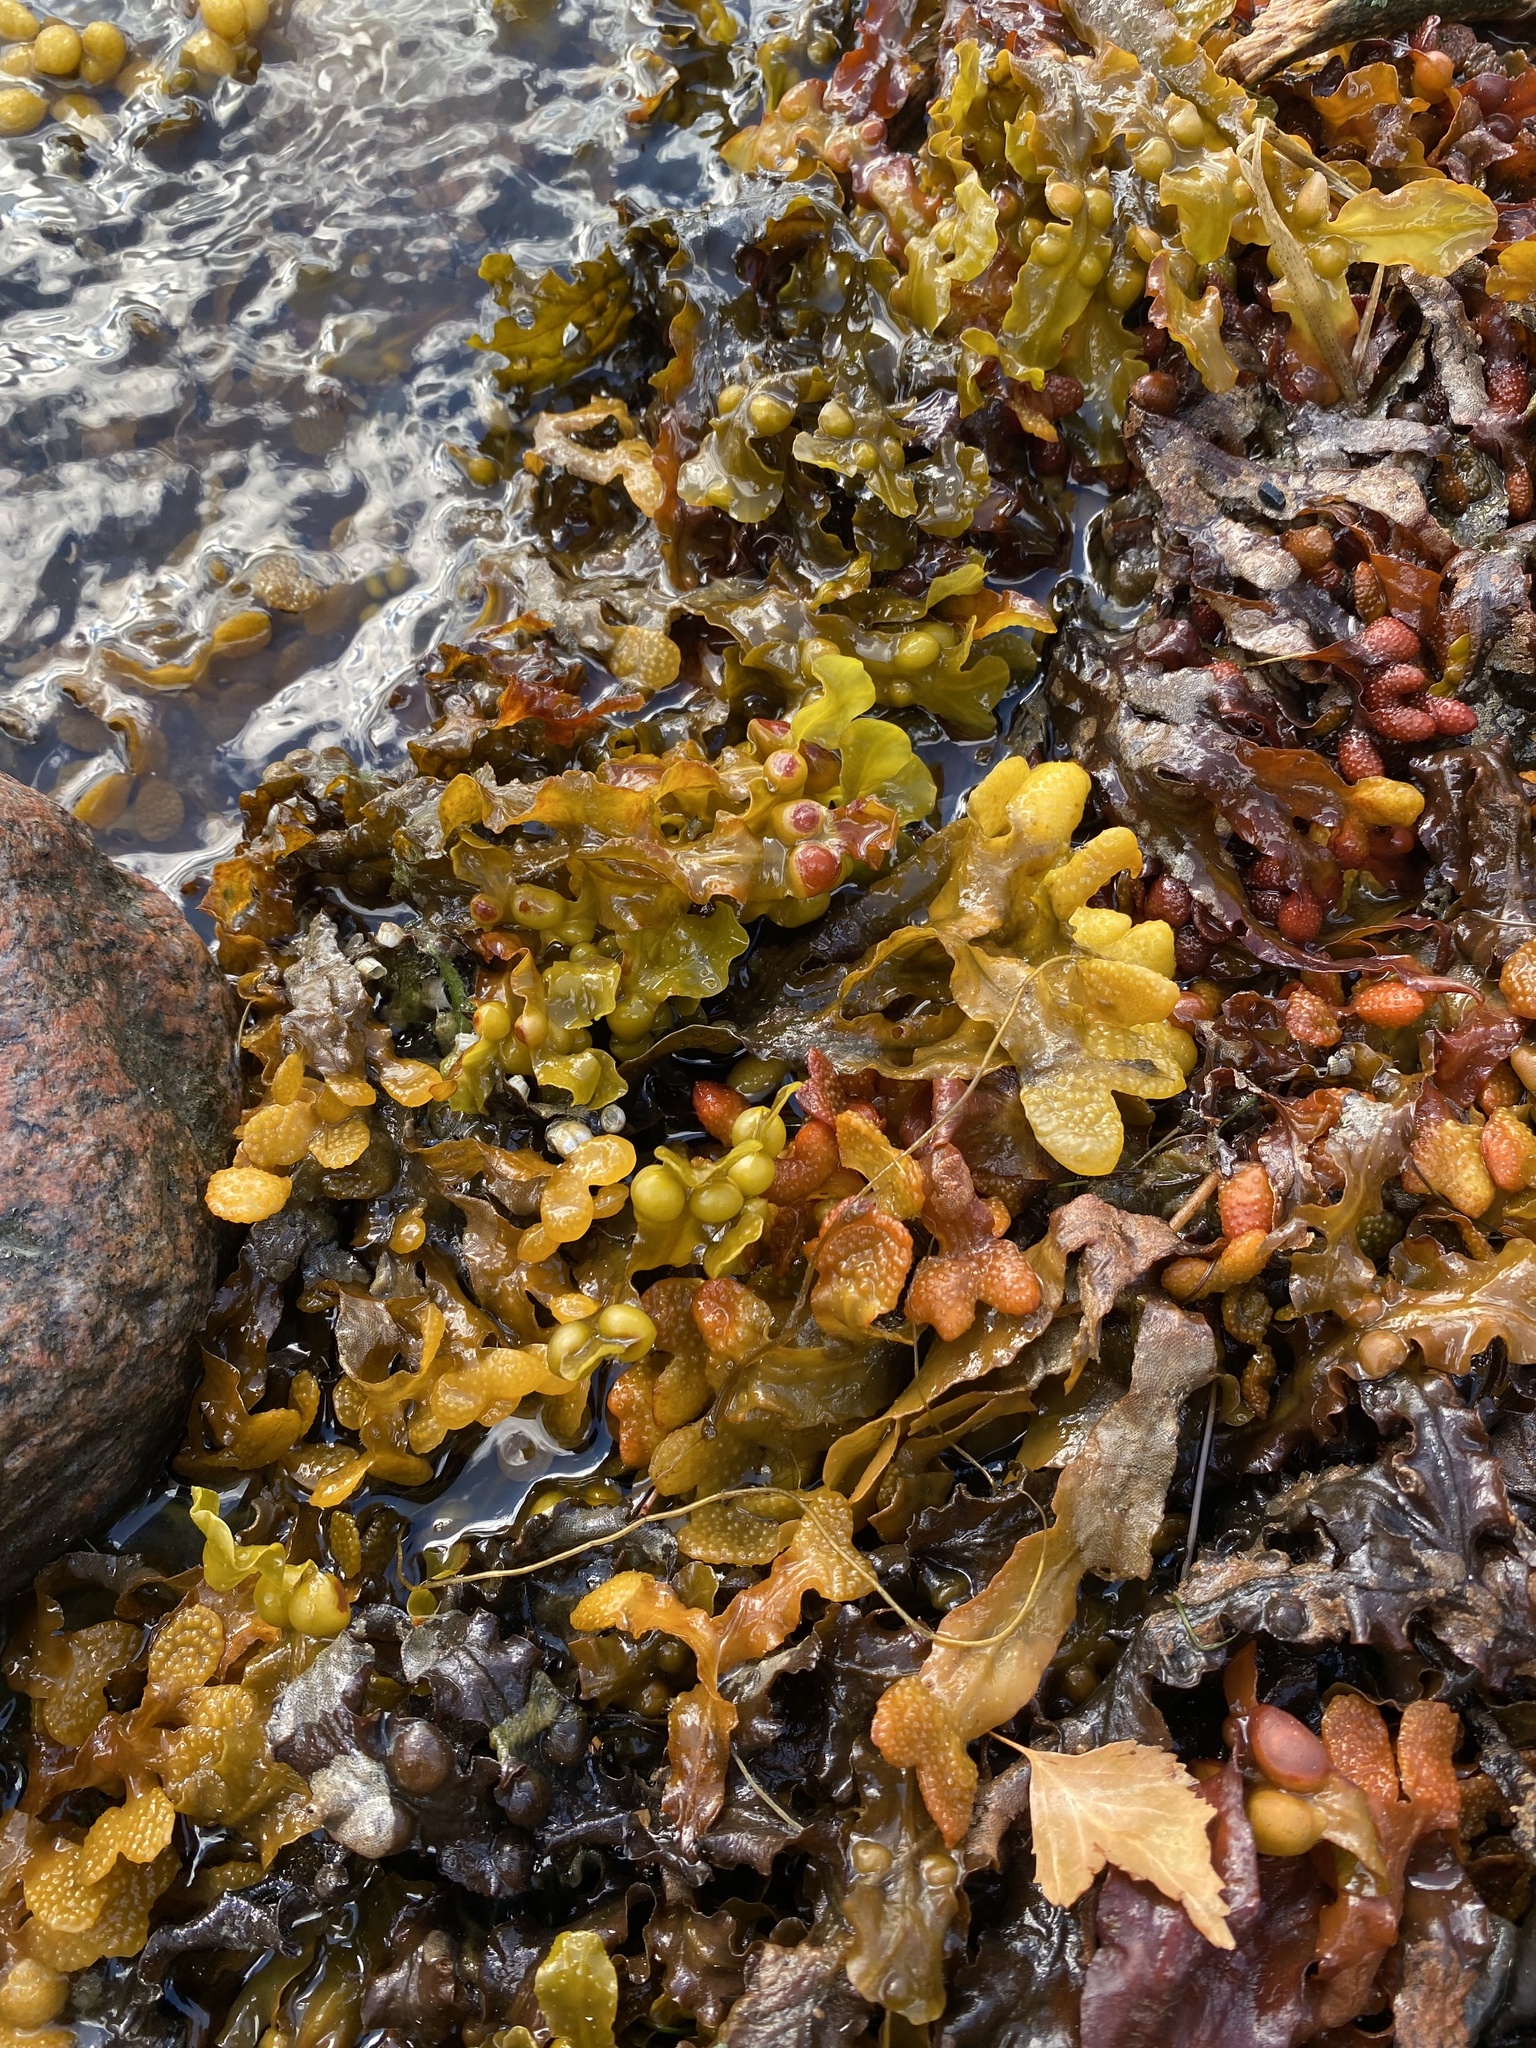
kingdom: Chromista
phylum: Ochrophyta
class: Phaeophyceae
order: Fucales
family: Fucaceae
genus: Fucus
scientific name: Fucus vesiculosus
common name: Bladder wrack
